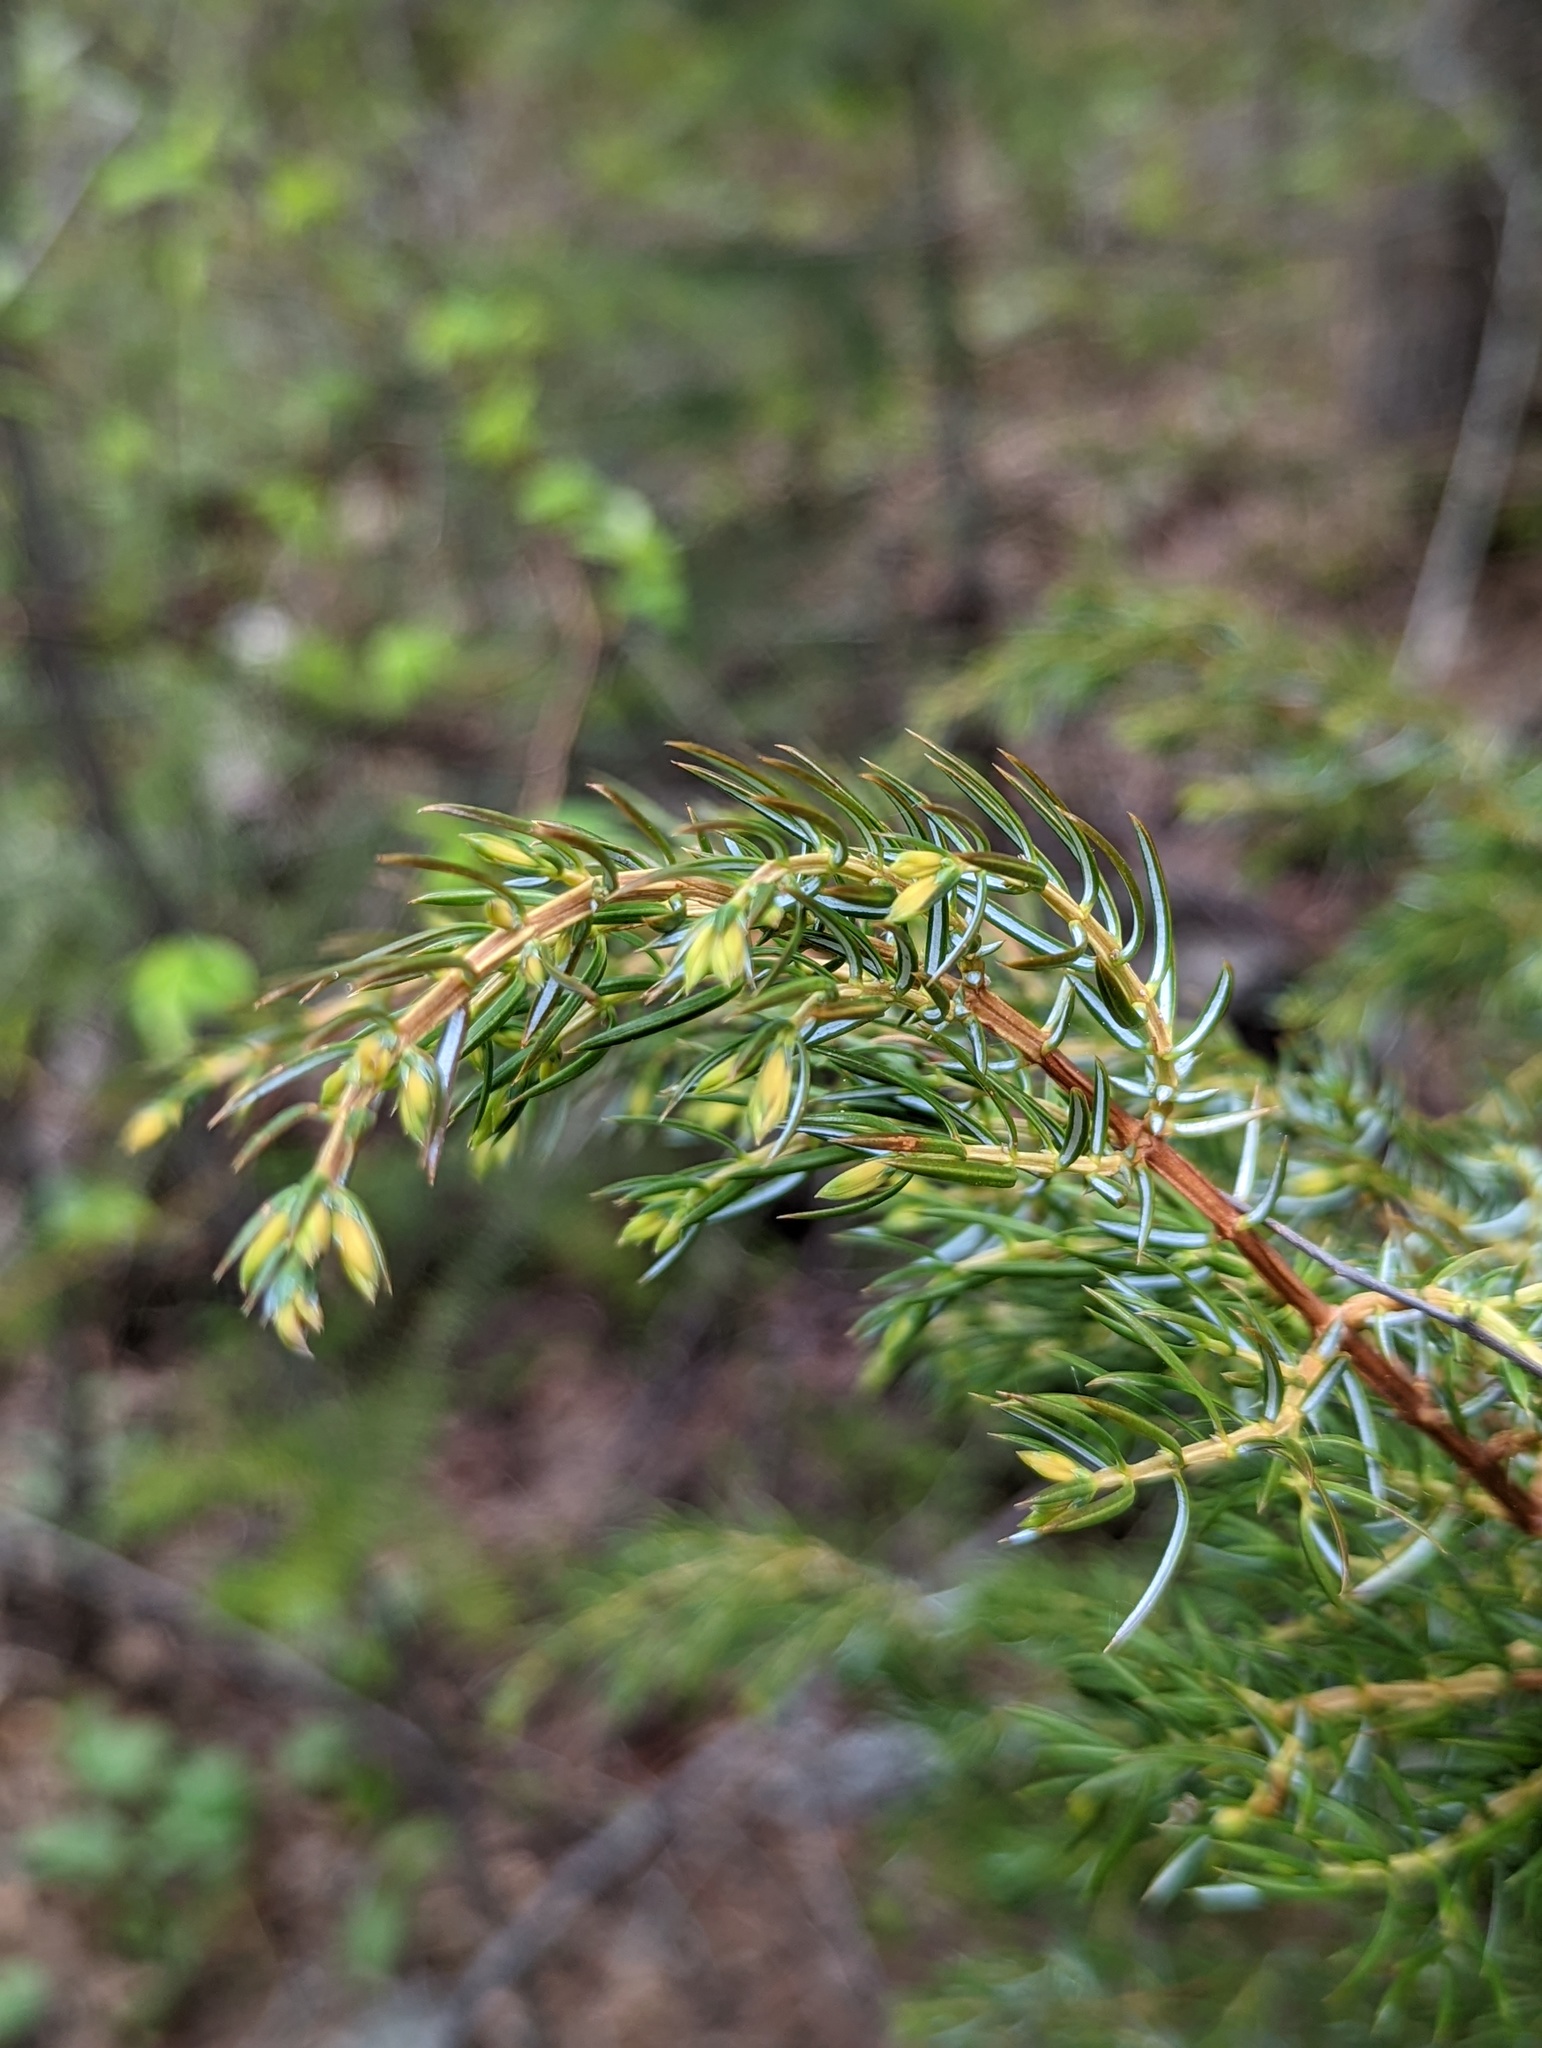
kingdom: Plantae
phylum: Tracheophyta
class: Pinopsida
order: Pinales
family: Cupressaceae
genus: Juniperus
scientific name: Juniperus communis
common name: Common juniper
